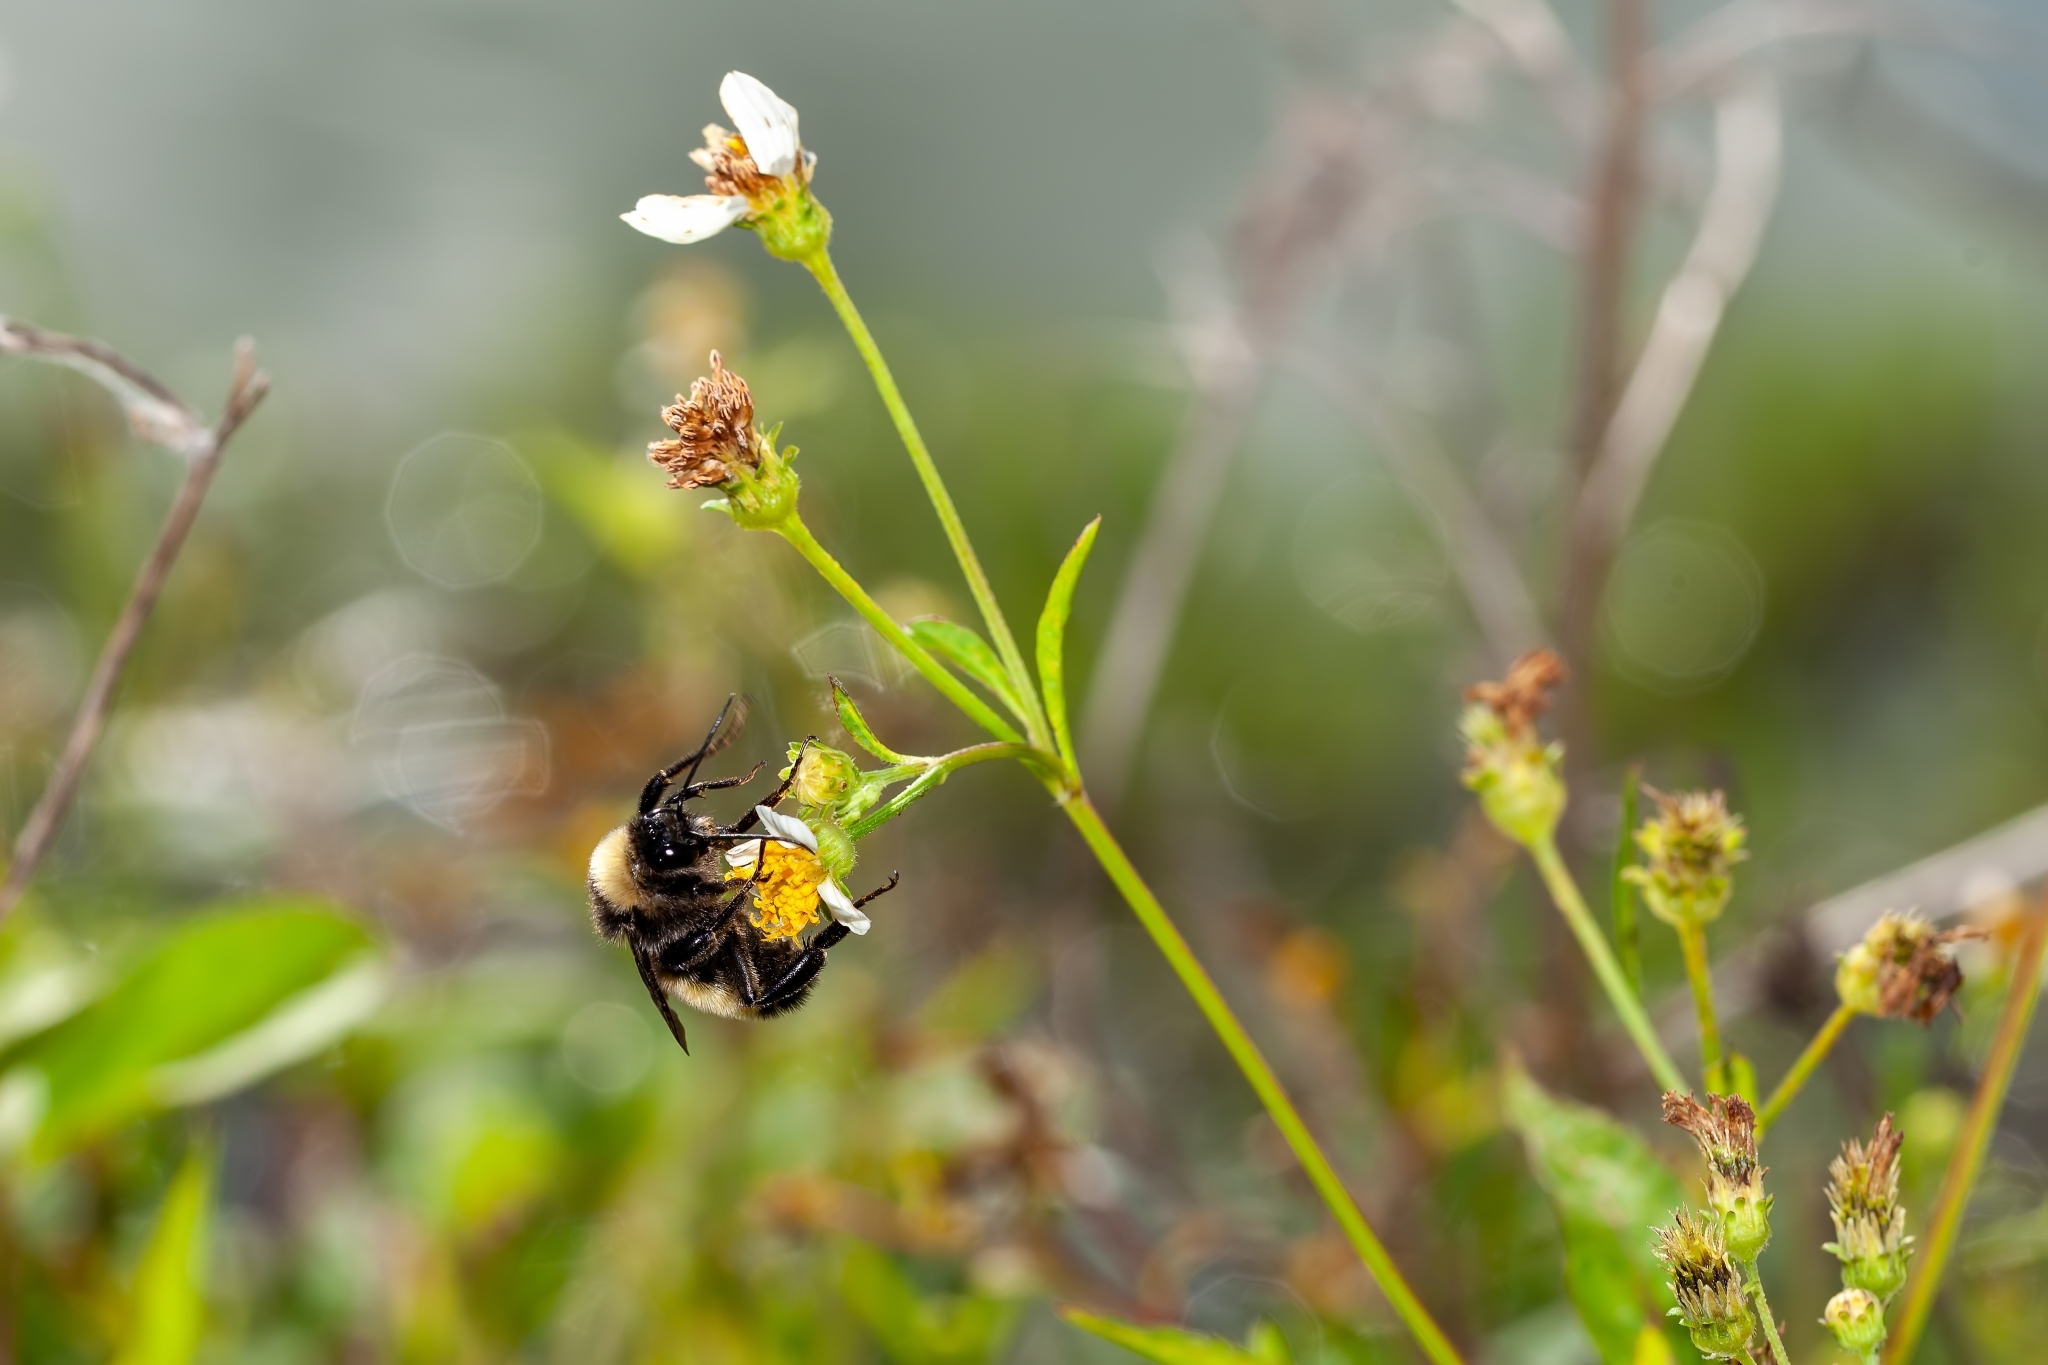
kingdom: Animalia
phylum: Arthropoda
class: Insecta
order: Hymenoptera
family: Apidae
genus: Bombus
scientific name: Bombus pensylvanicus
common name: Bumble bee
